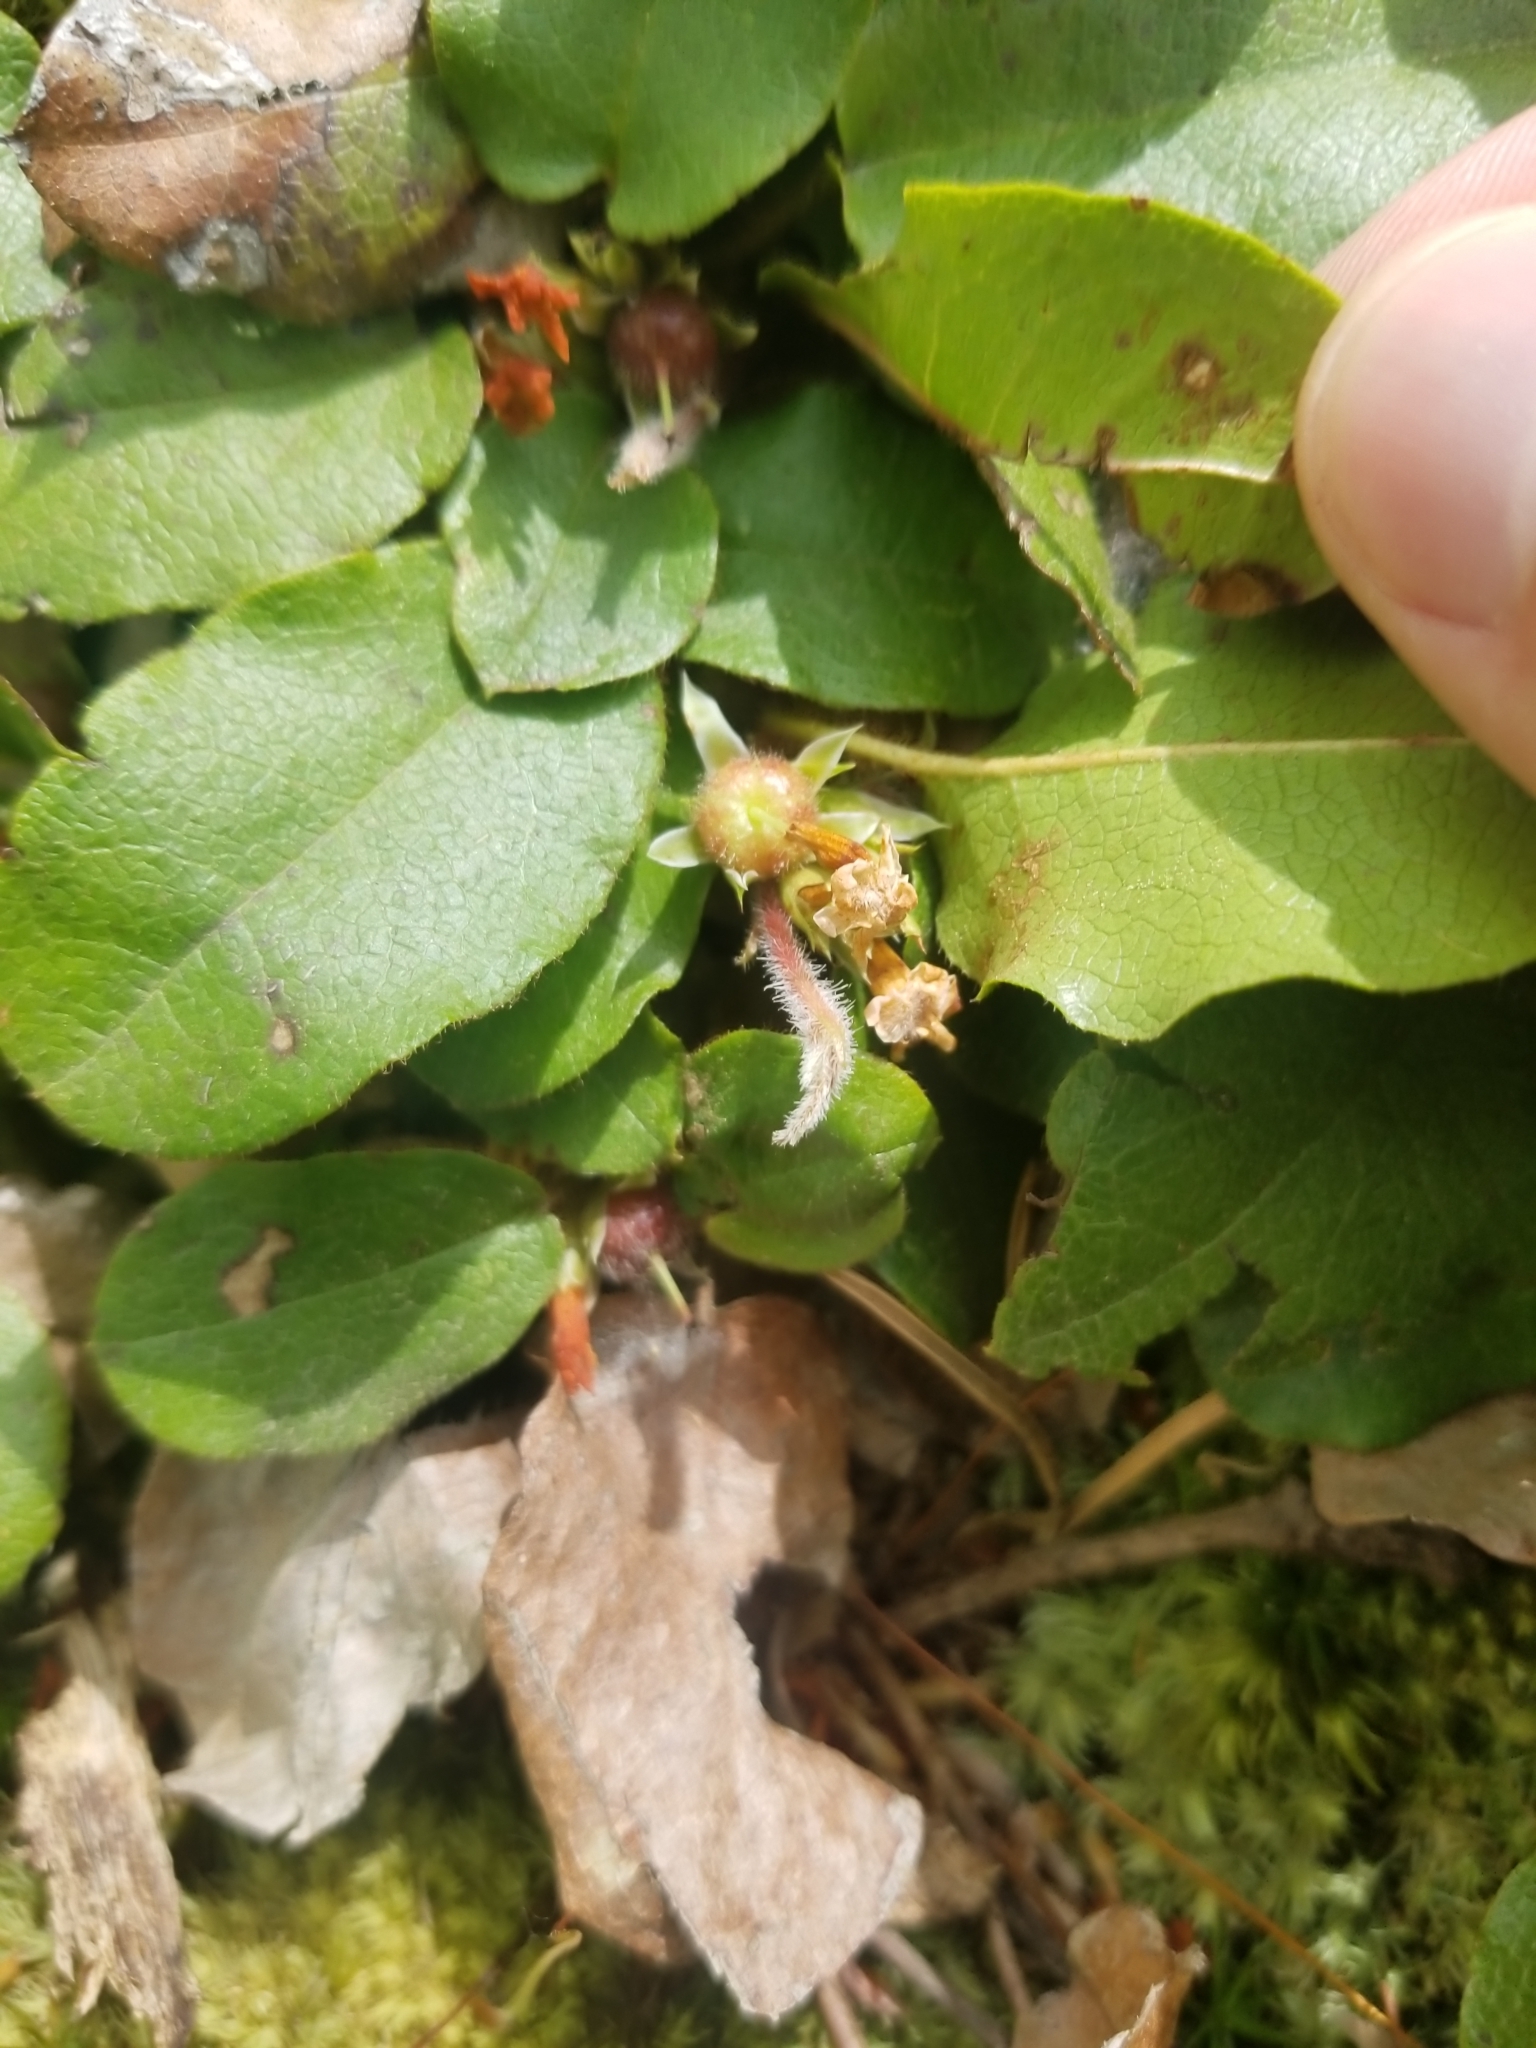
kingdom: Plantae
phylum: Tracheophyta
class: Magnoliopsida
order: Ericales
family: Ericaceae
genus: Epigaea
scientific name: Epigaea repens
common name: Gravelroot
